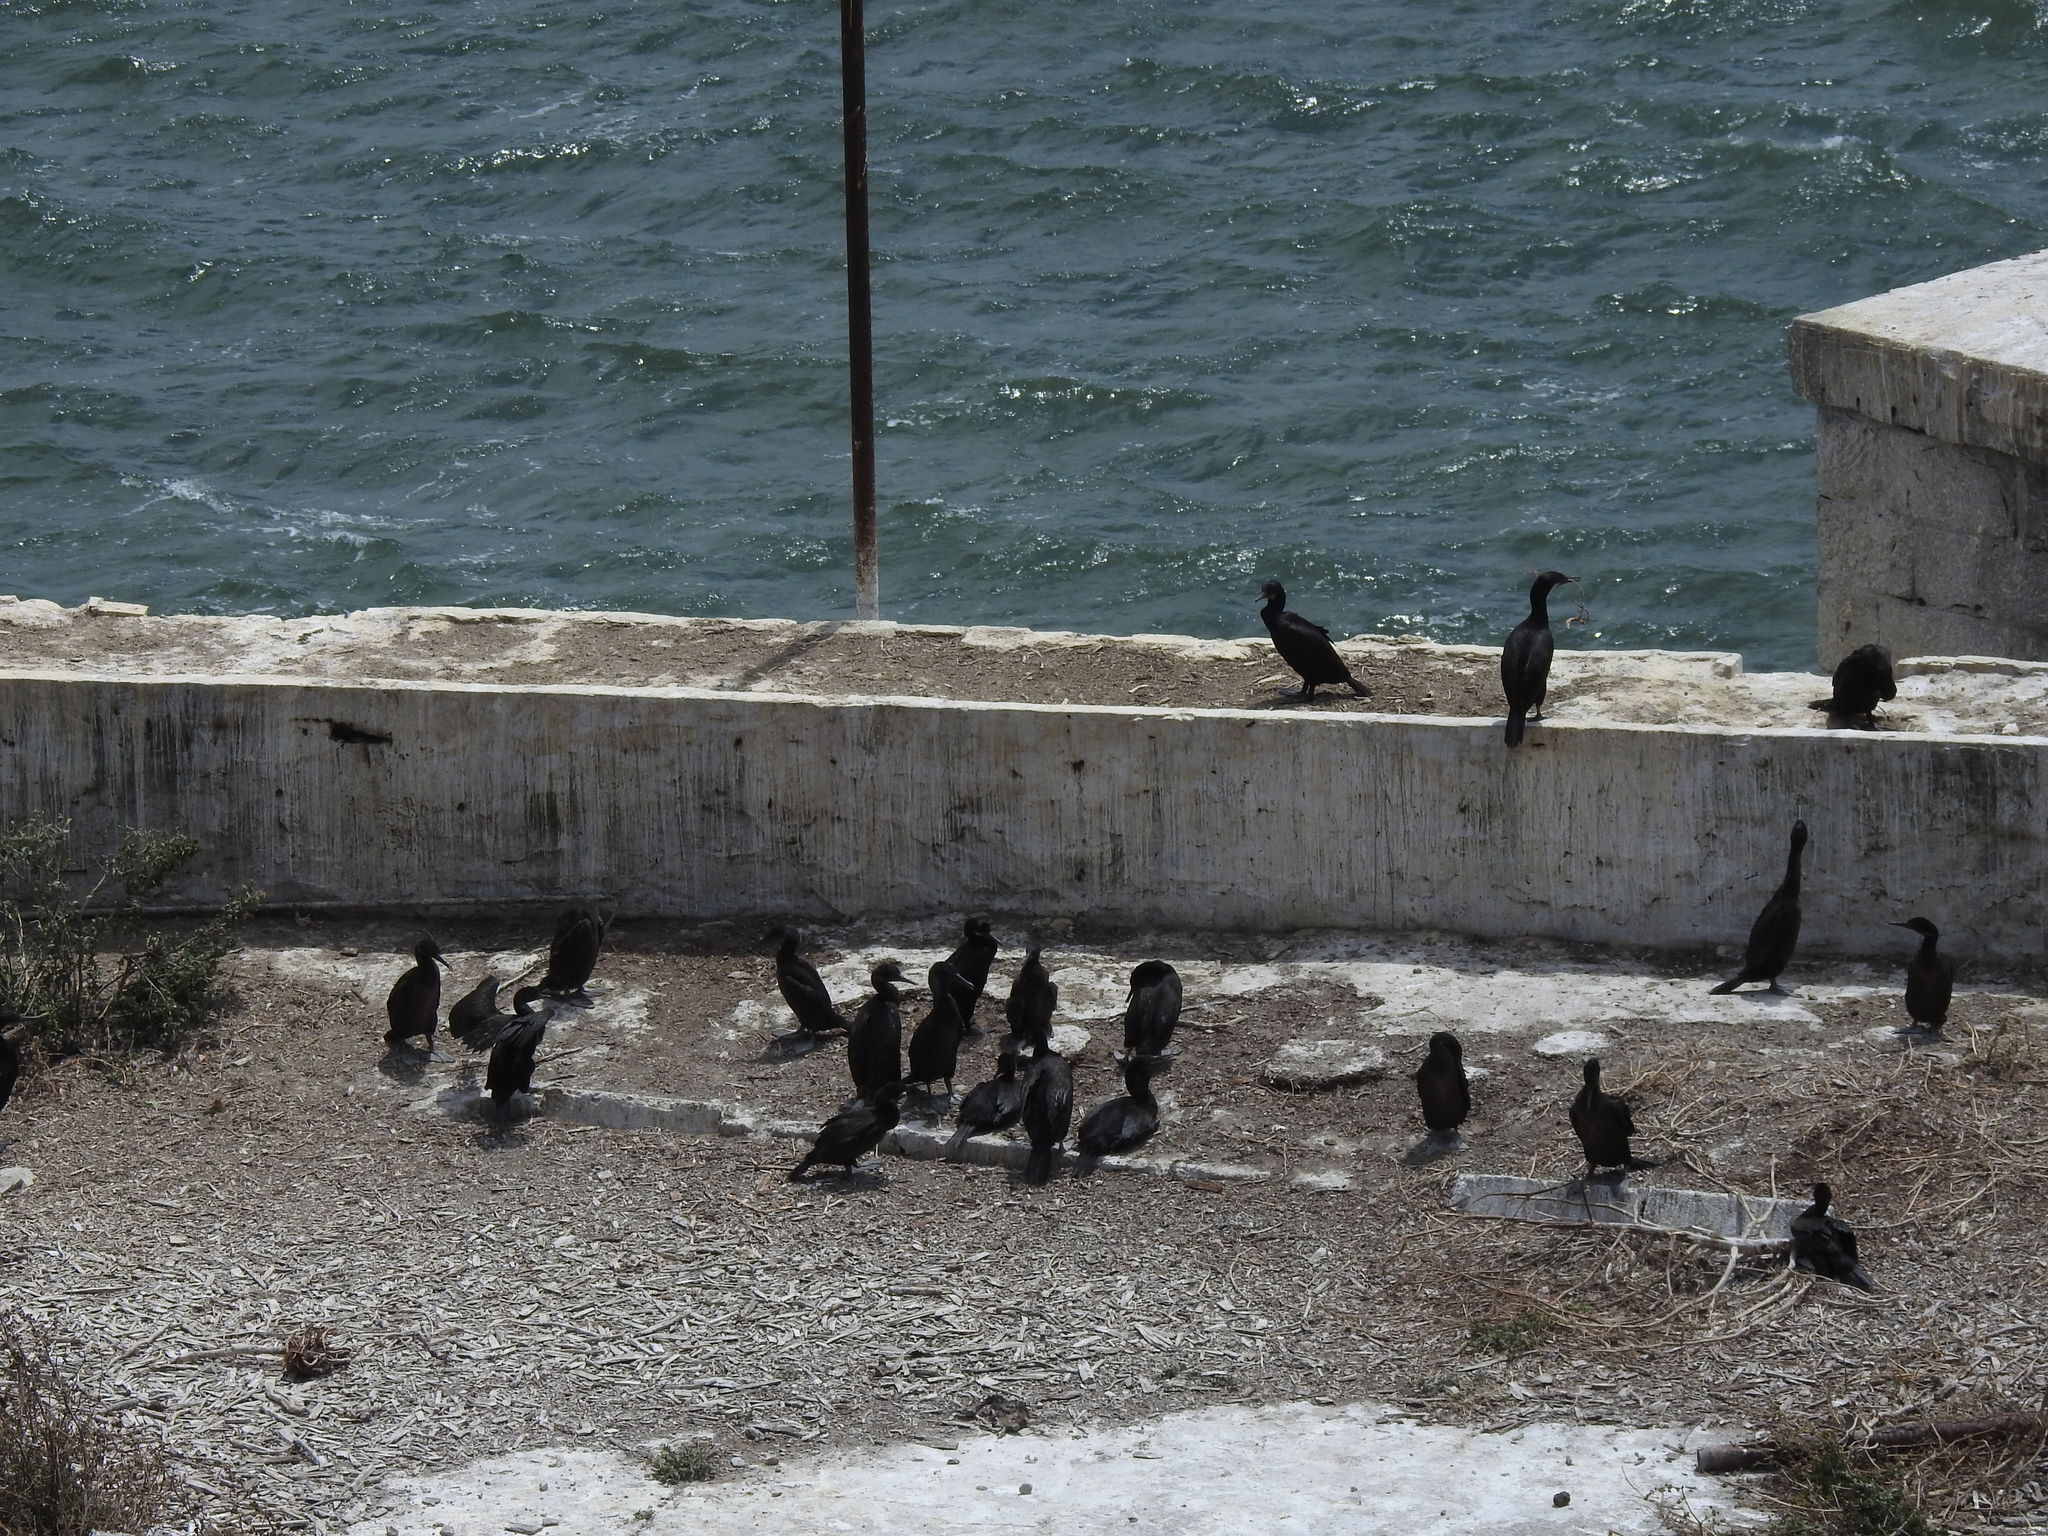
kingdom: Animalia
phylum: Chordata
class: Aves
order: Suliformes
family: Phalacrocoracidae
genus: Urile
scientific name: Urile penicillatus
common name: Brandt's cormorant
